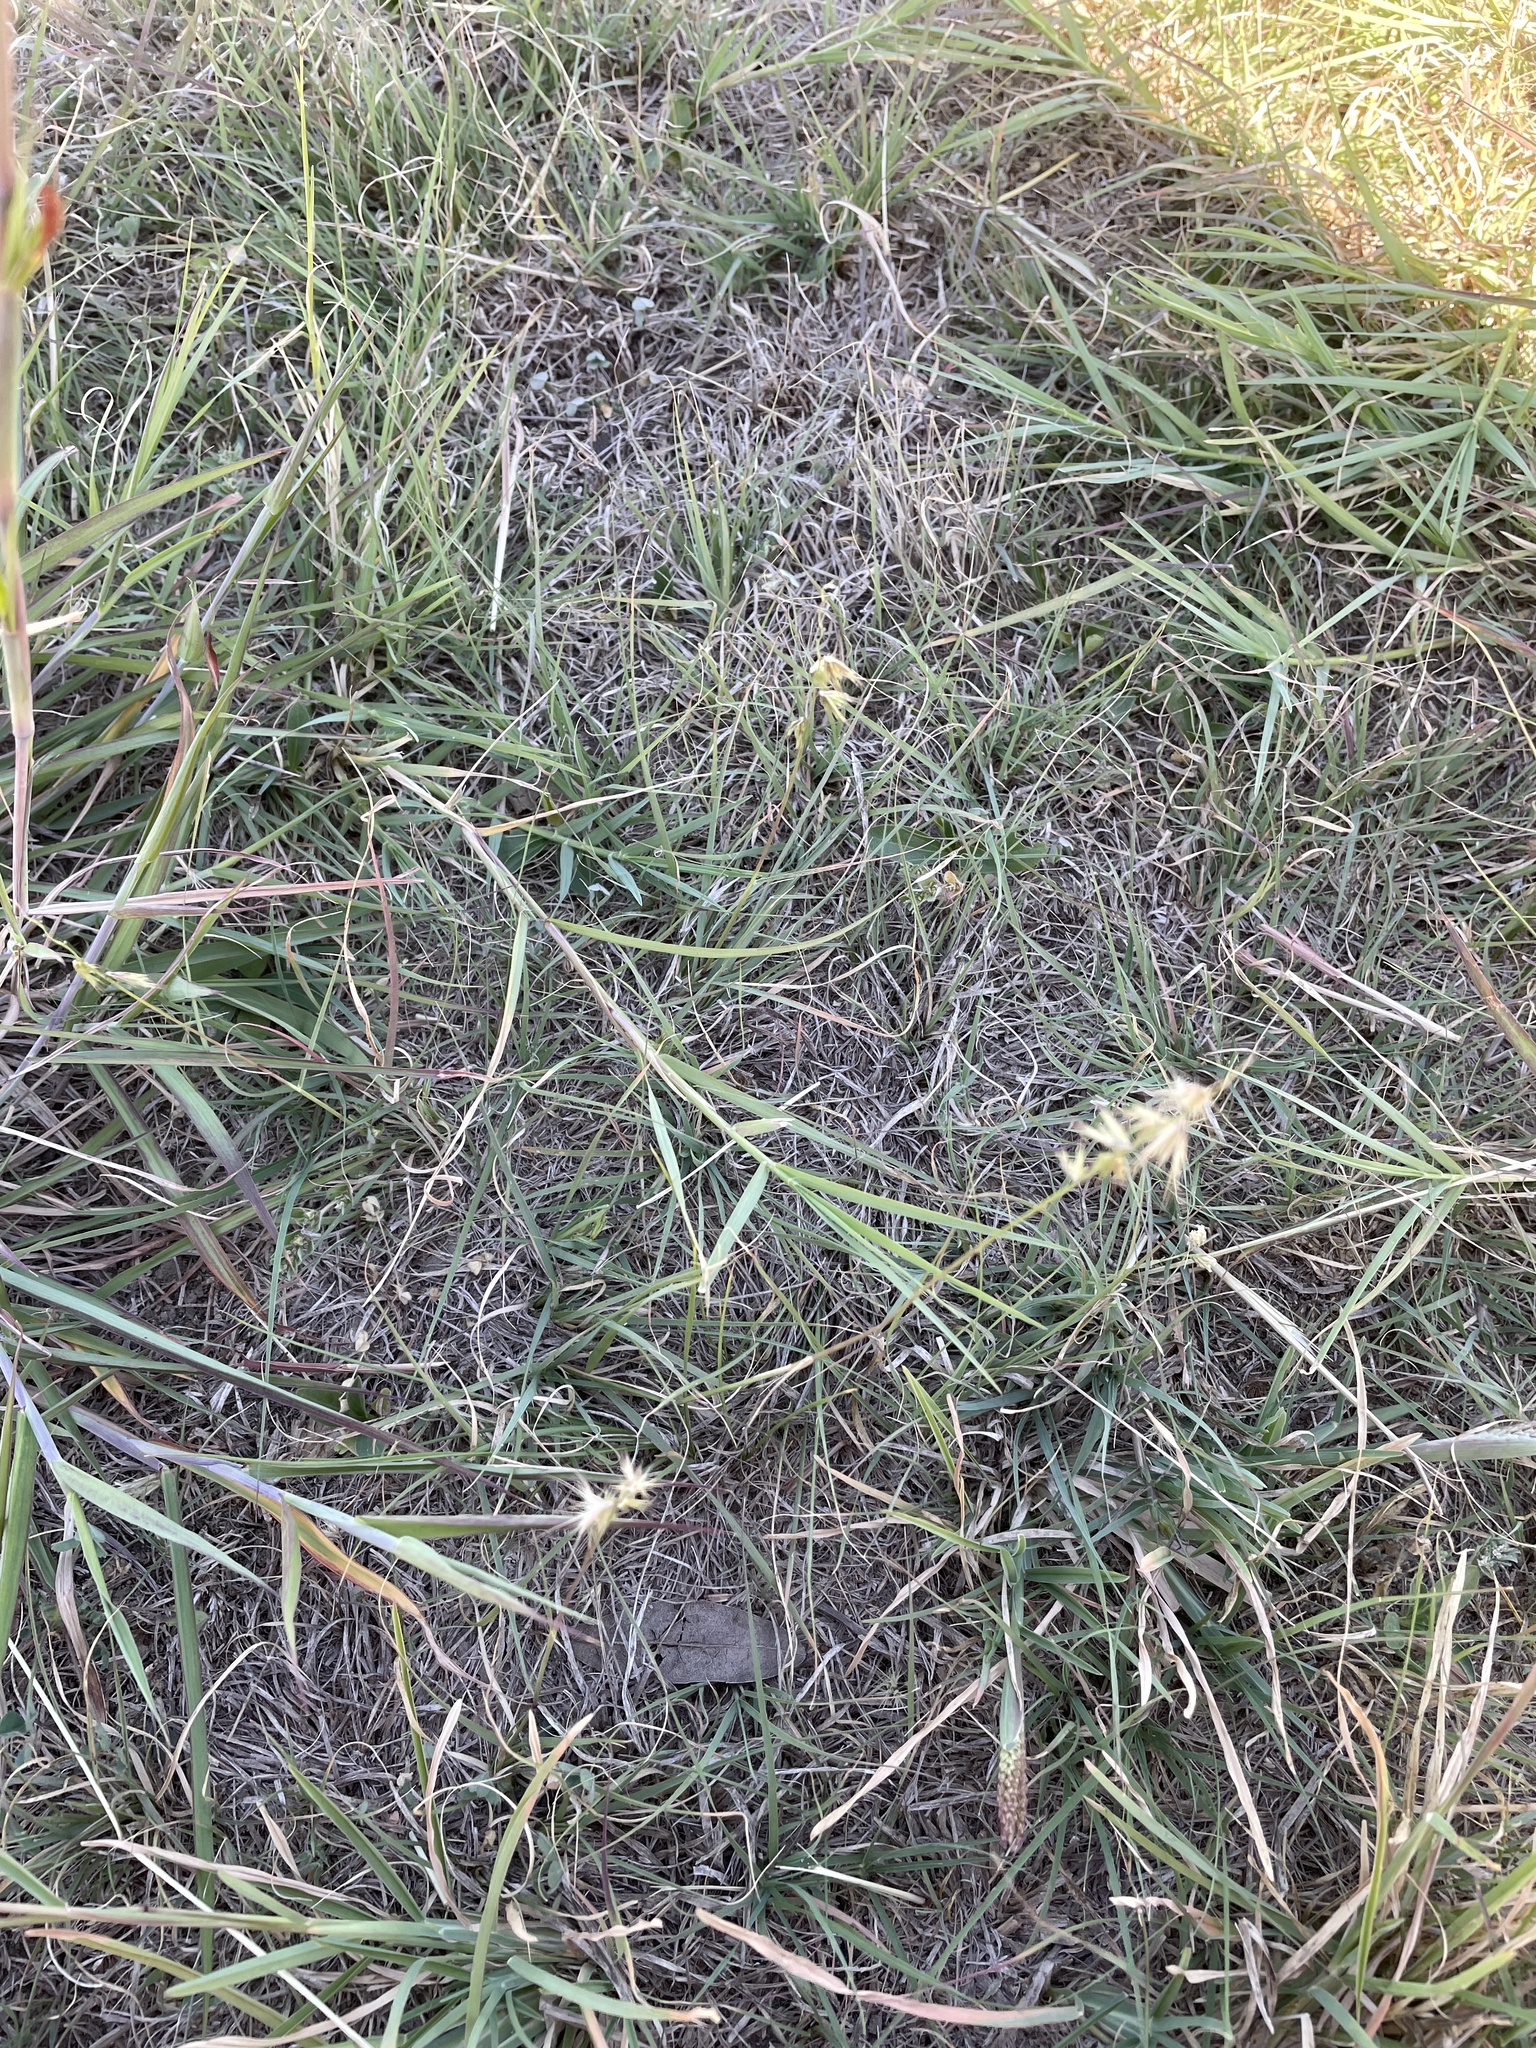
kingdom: Plantae
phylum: Tracheophyta
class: Liliopsida
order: Poales
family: Poaceae
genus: Bouteloua
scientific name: Bouteloua rigidiseta
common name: Texas grama
